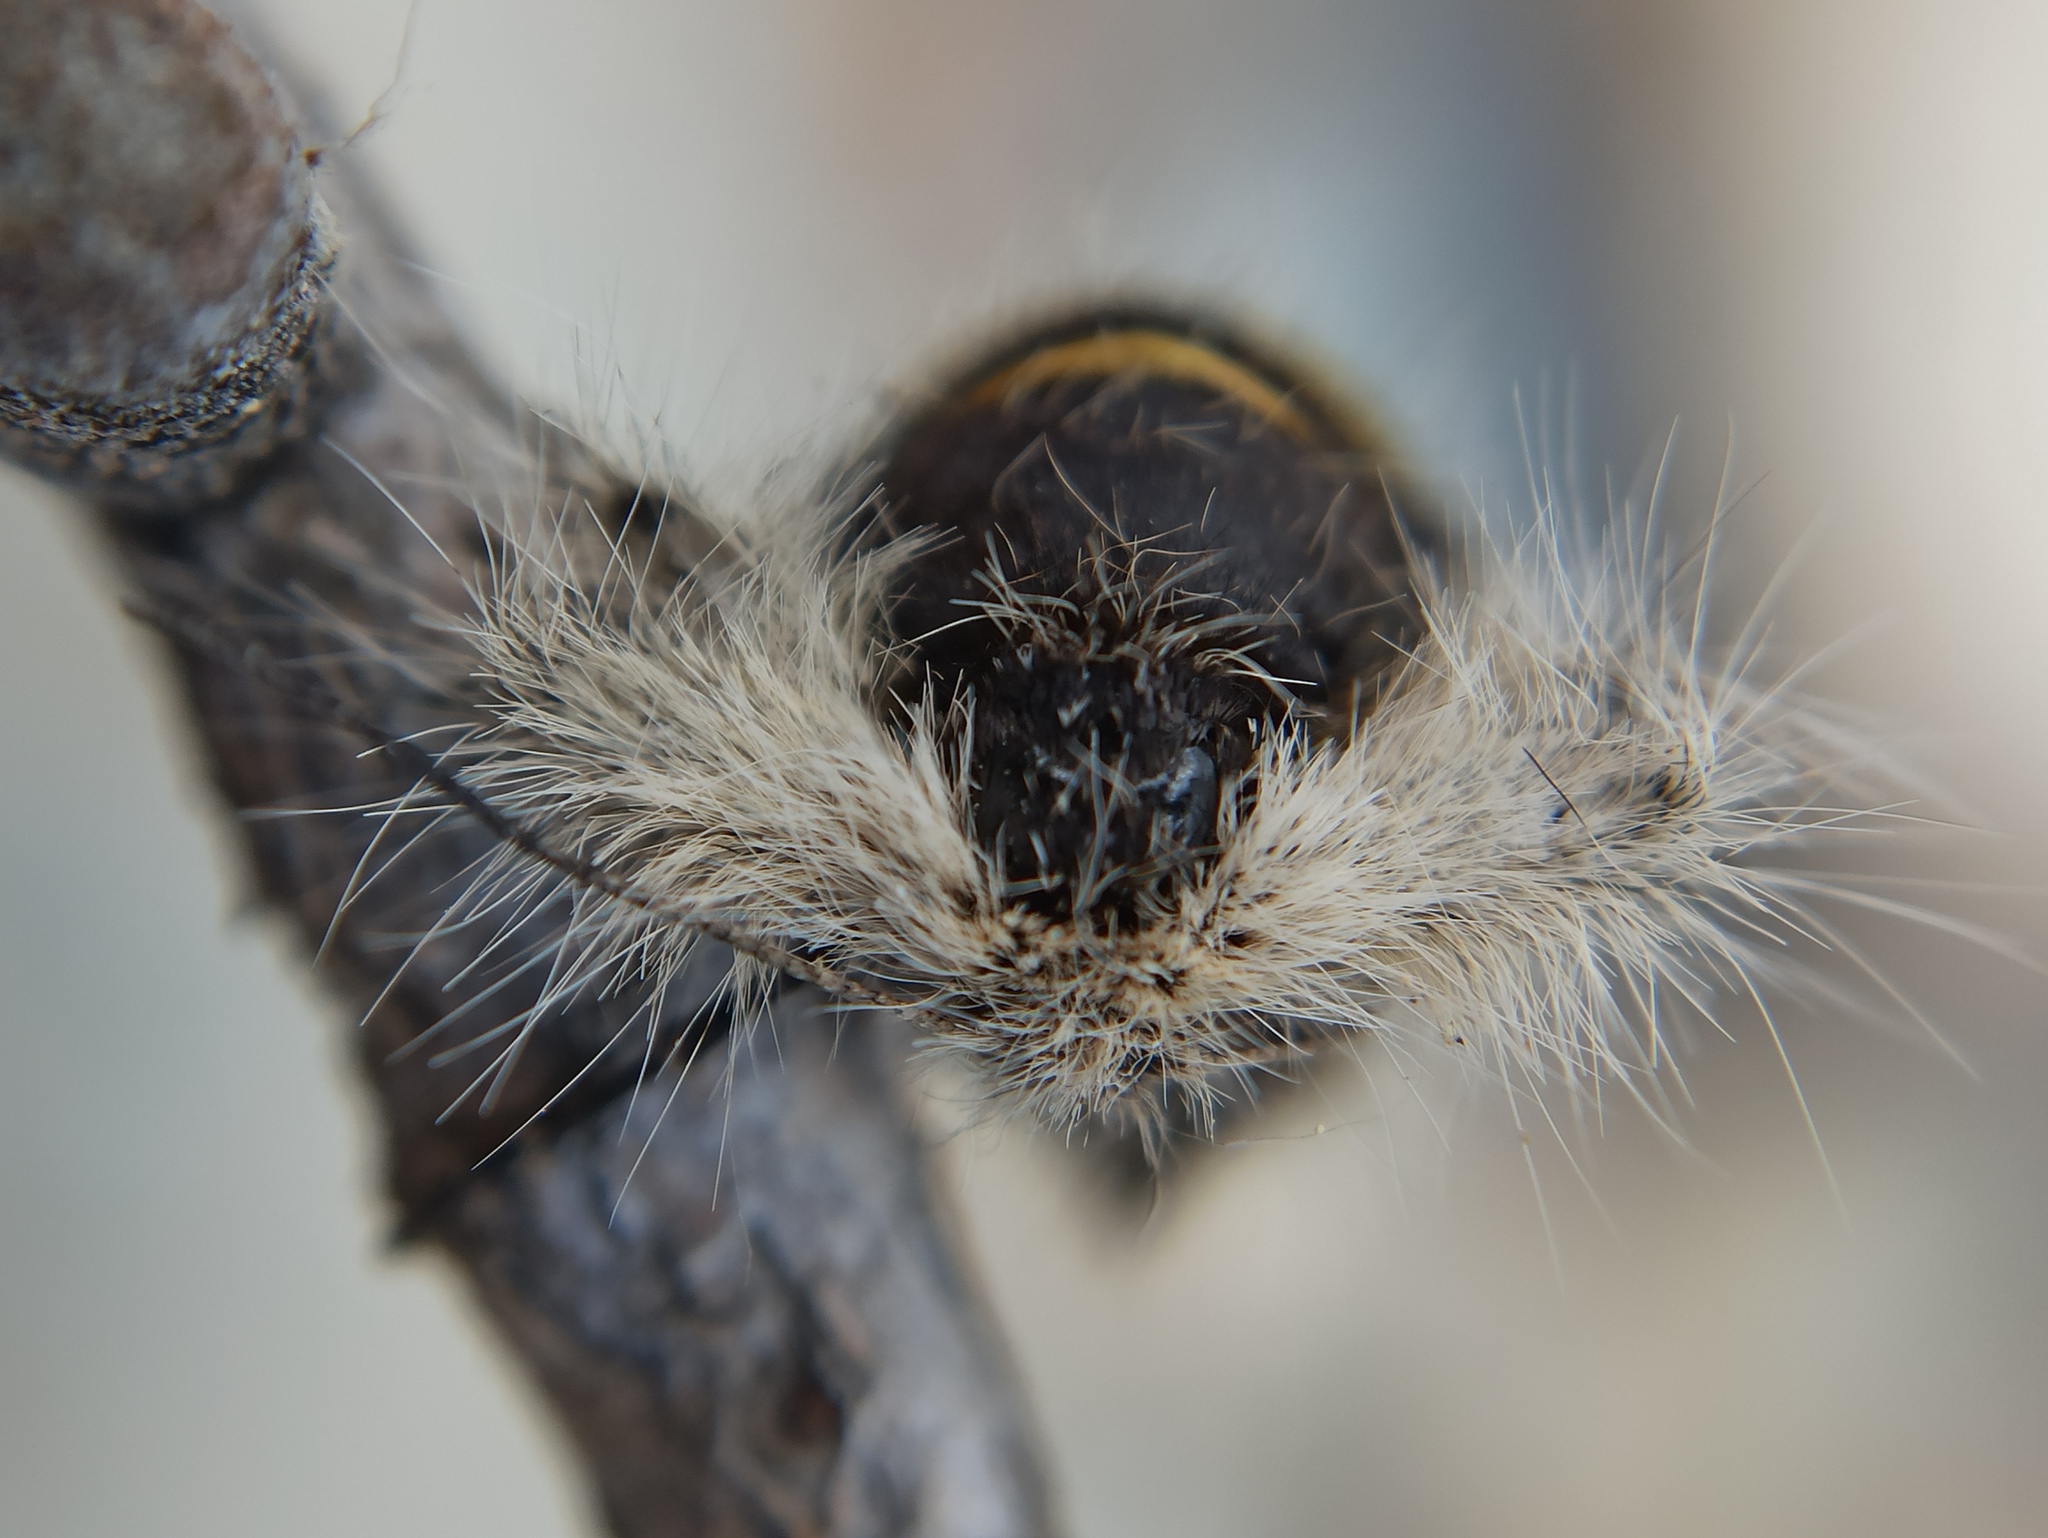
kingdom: Animalia
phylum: Arthropoda
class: Insecta
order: Lepidoptera
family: Geometridae
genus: Lycia
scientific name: Lycia alpina
